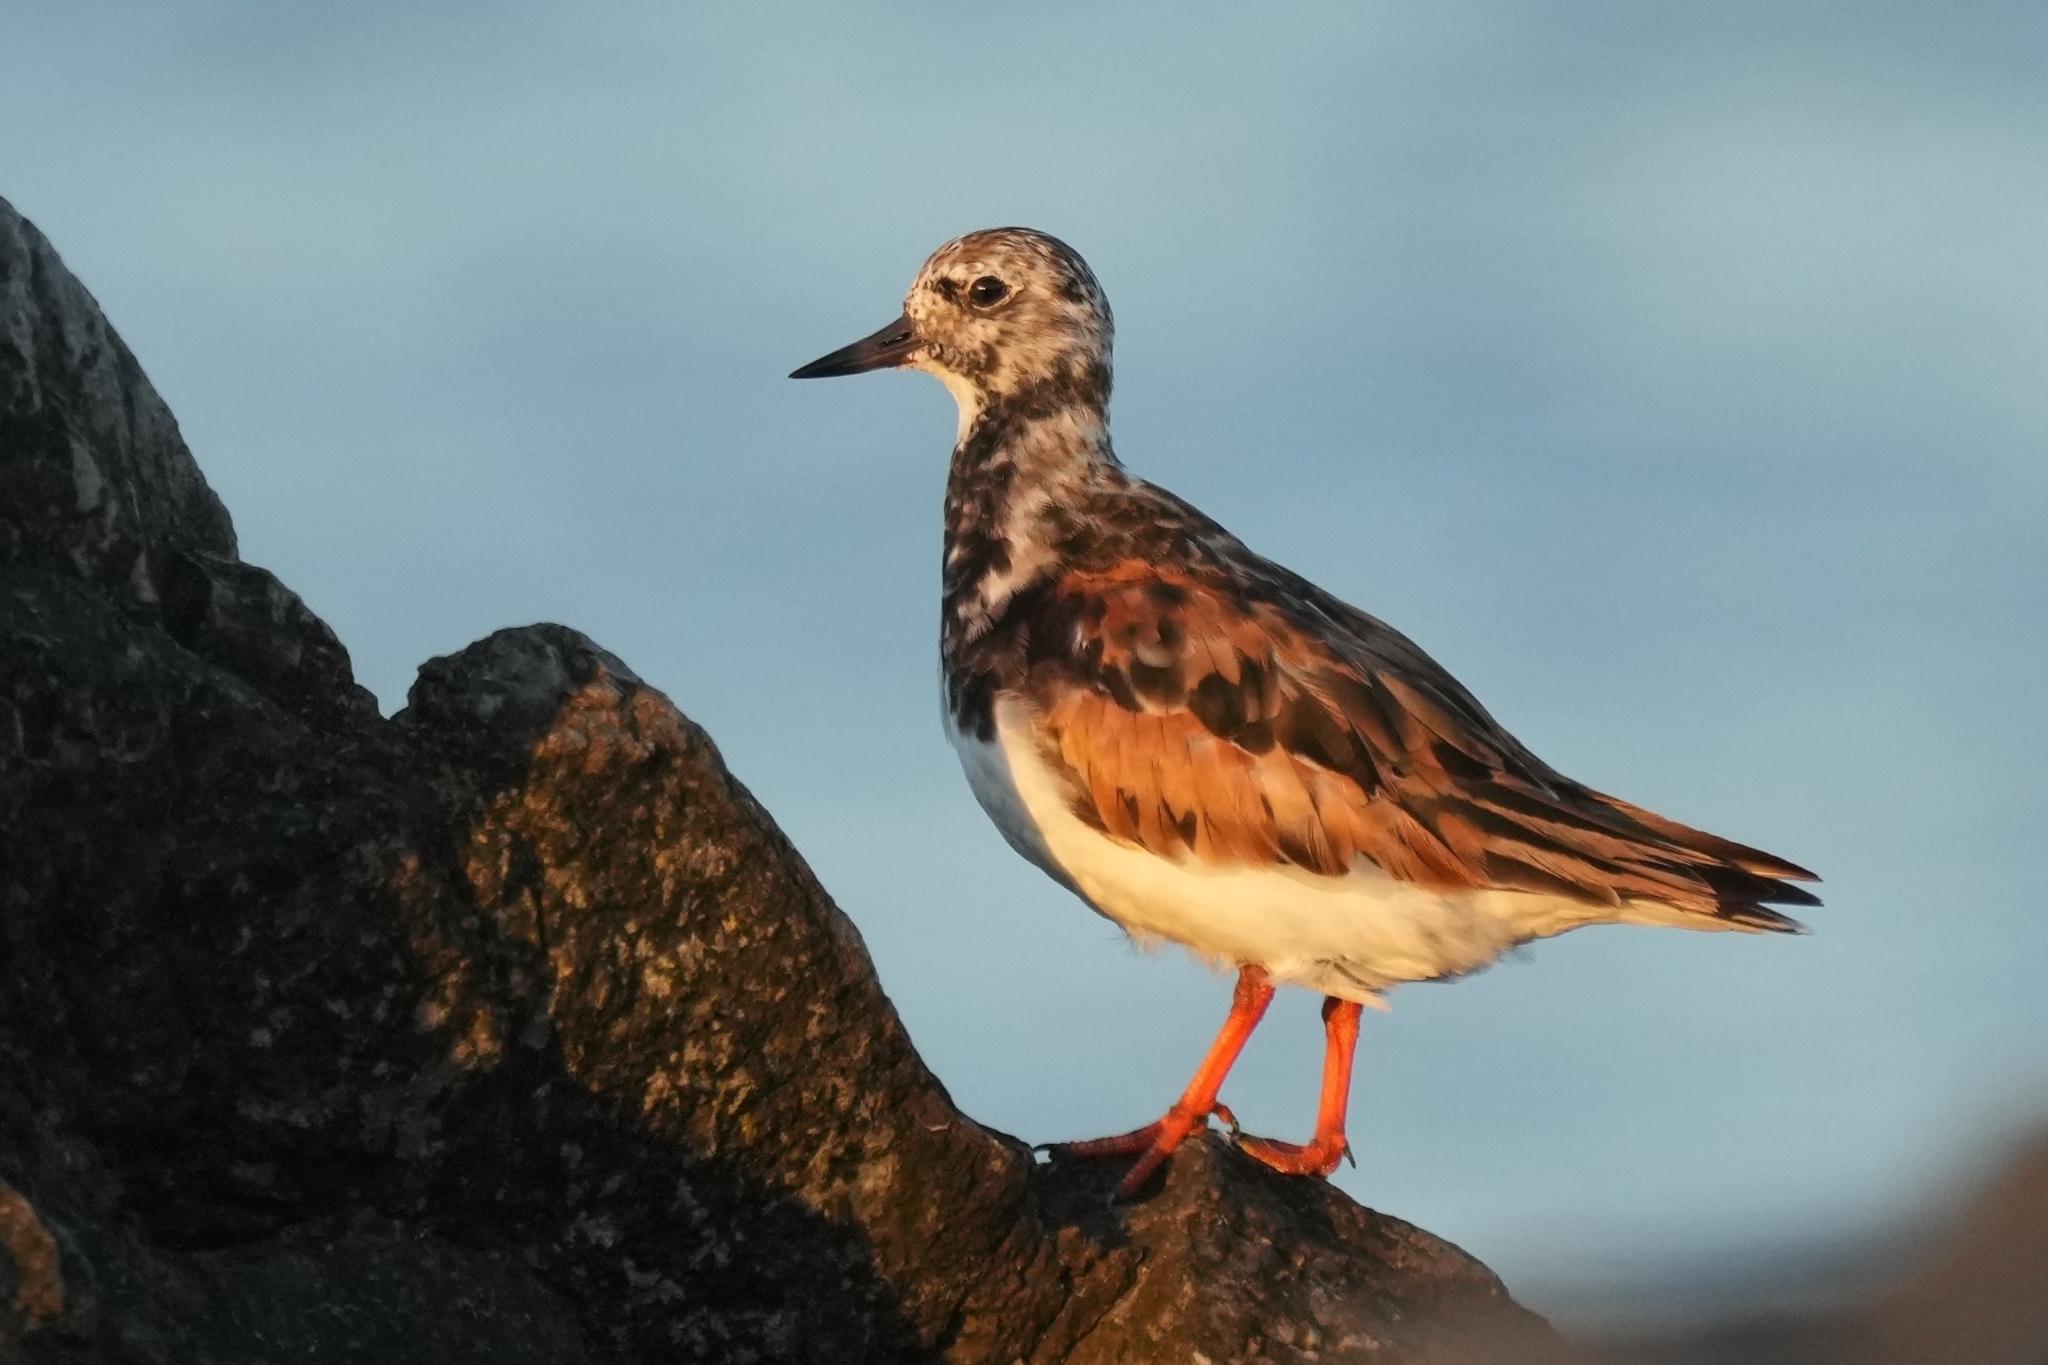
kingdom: Animalia
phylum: Chordata
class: Aves
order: Charadriiformes
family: Scolopacidae
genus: Arenaria
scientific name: Arenaria interpres
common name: Ruddy turnstone
